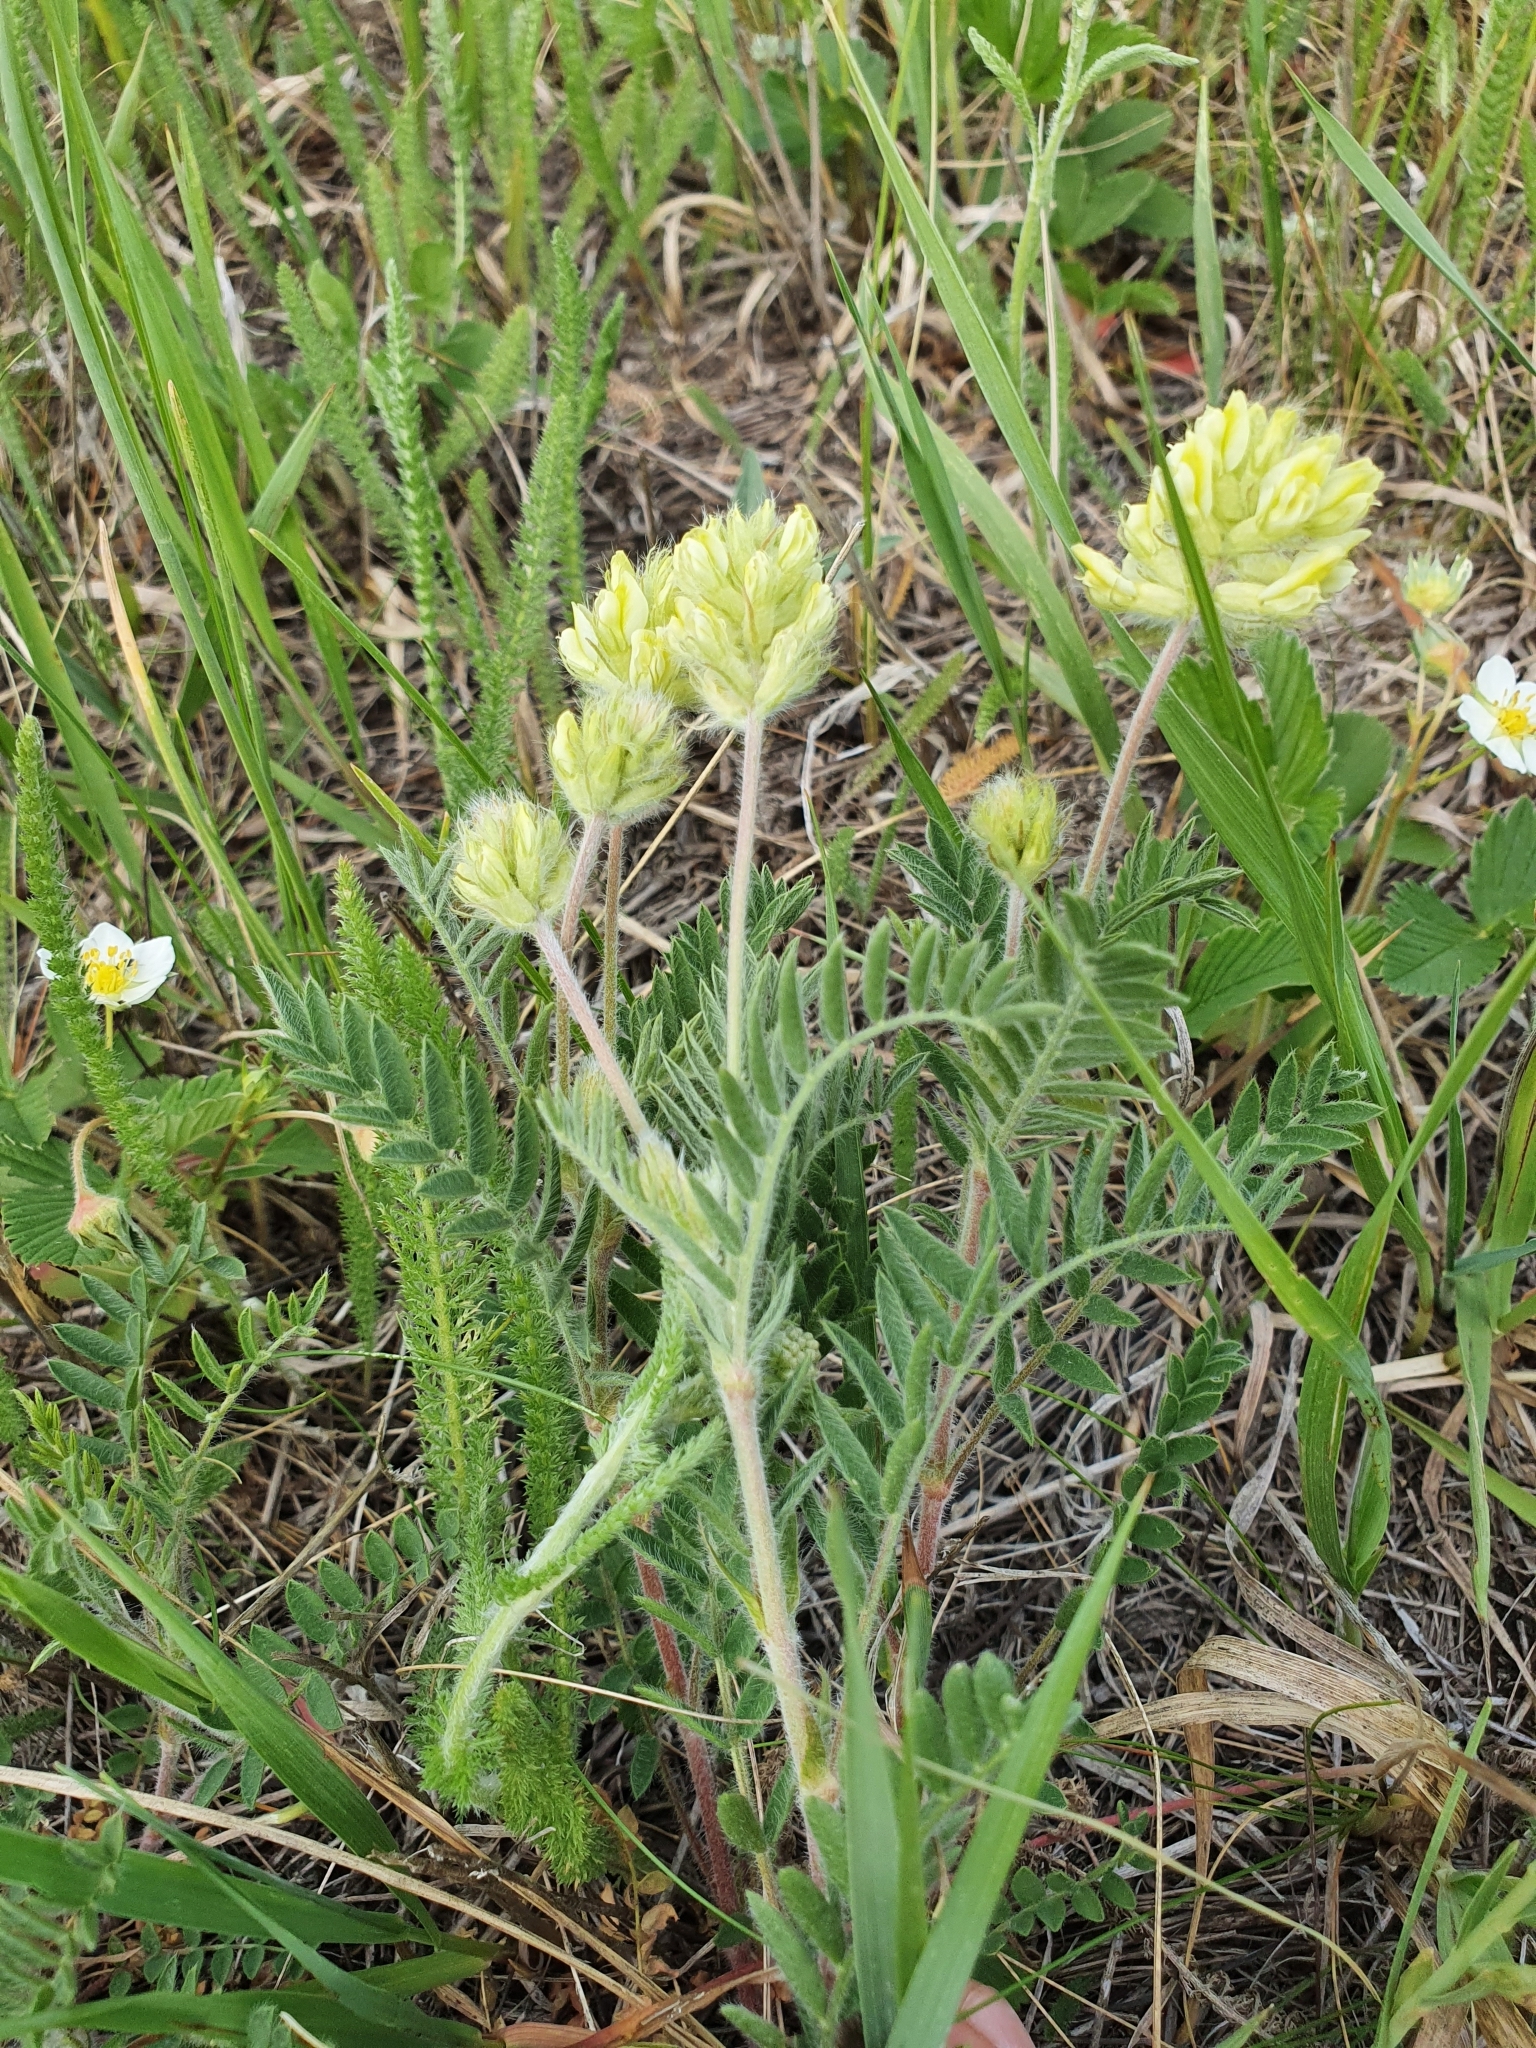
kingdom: Plantae
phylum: Tracheophyta
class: Magnoliopsida
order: Fabales
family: Fabaceae
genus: Oxytropis
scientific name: Oxytropis pilosa
